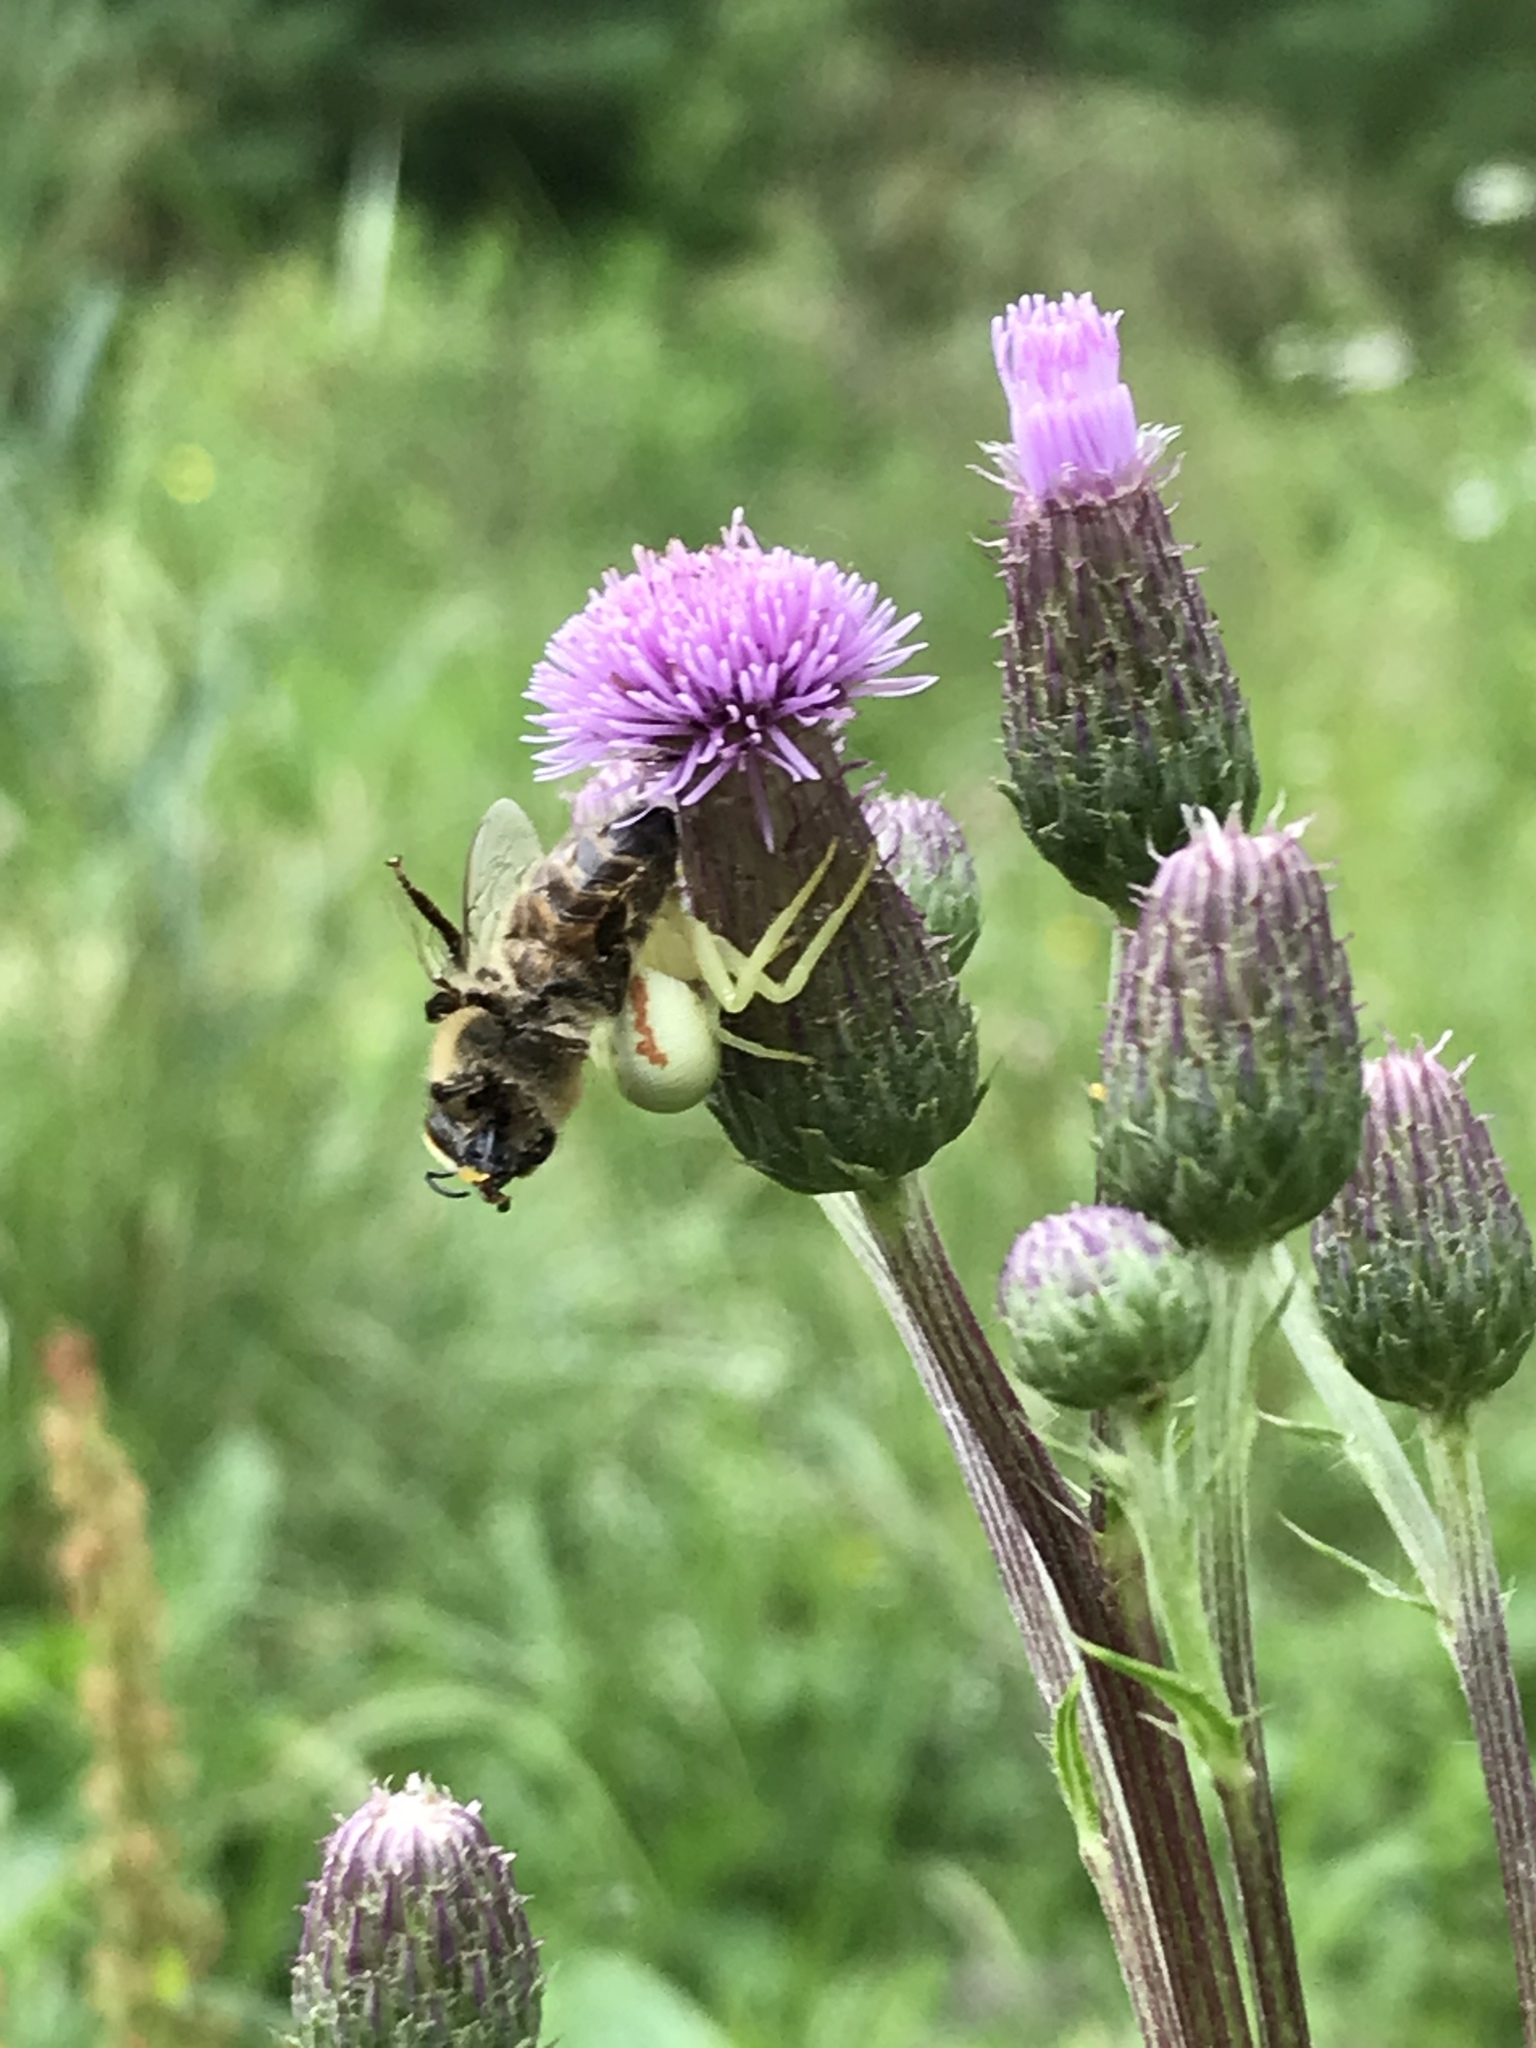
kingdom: Animalia
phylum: Arthropoda
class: Arachnida
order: Araneae
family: Thomisidae
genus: Misumena
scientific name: Misumena vatia
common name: Goldenrod crab spider
